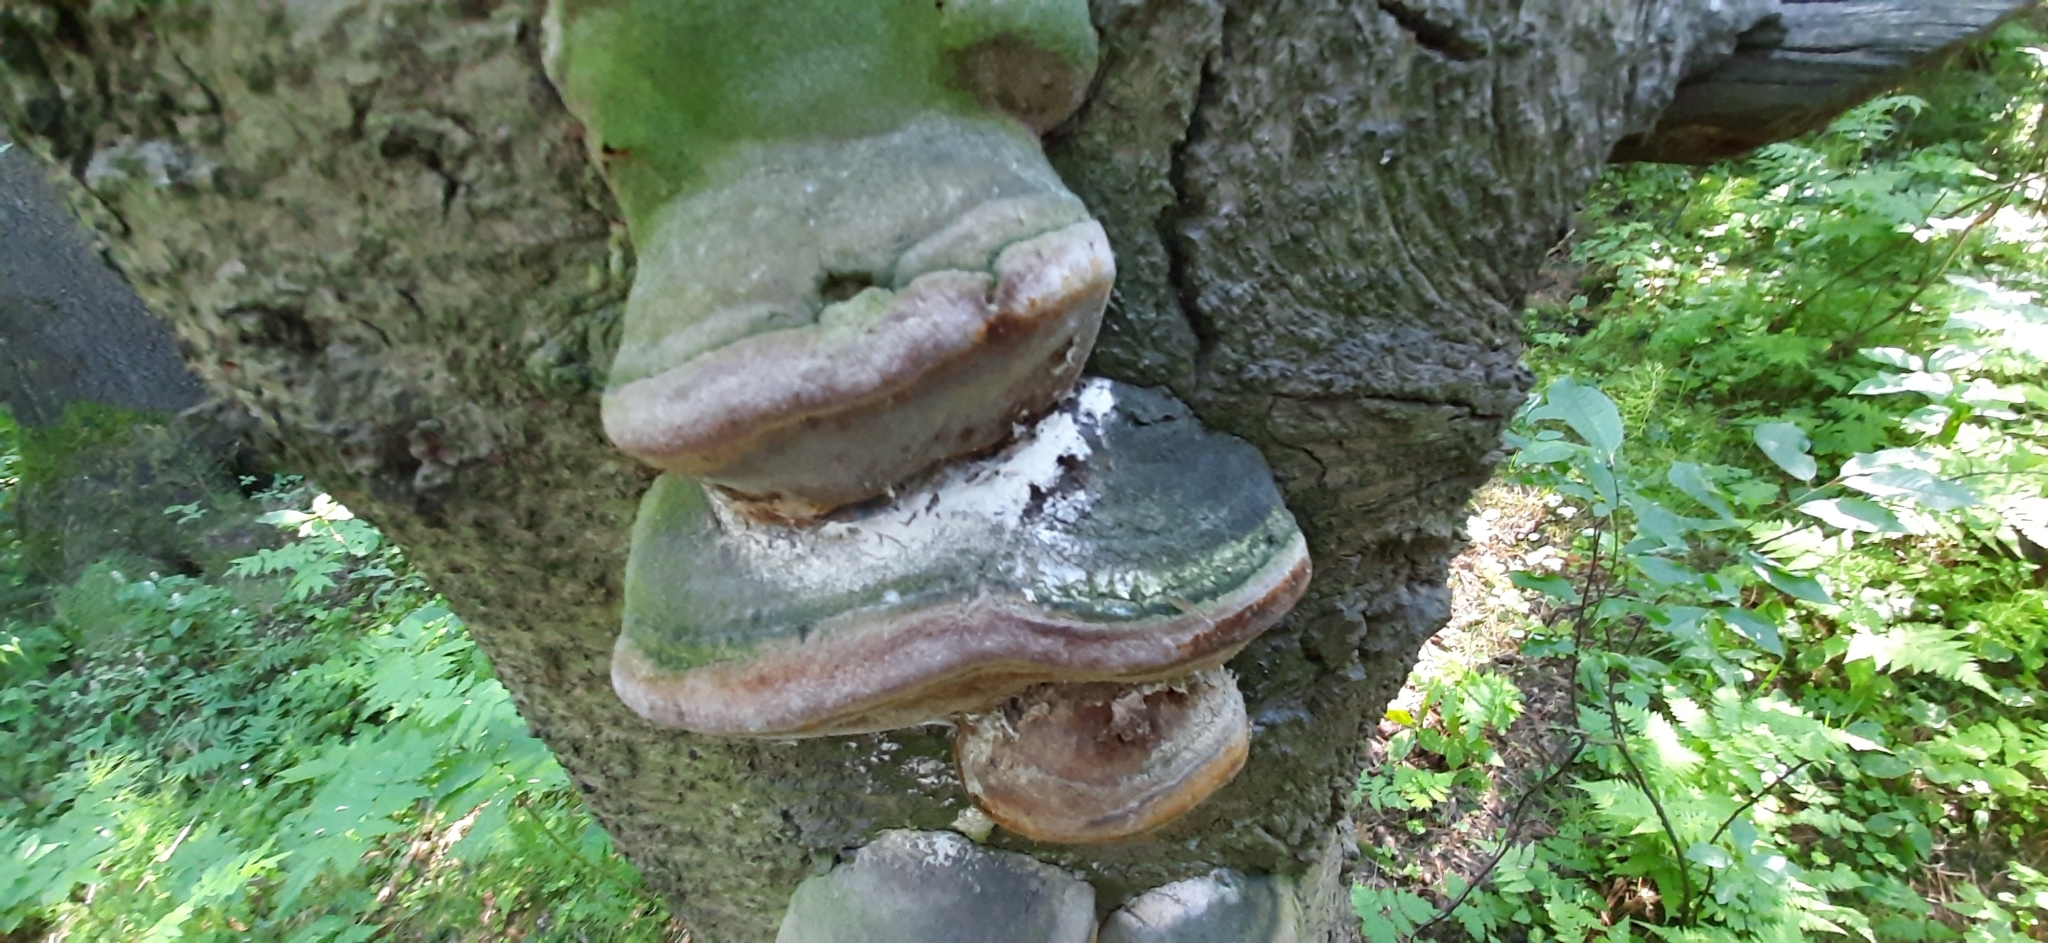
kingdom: Fungi
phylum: Basidiomycota
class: Agaricomycetes
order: Hymenochaetales
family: Hymenochaetaceae
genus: Phellinus
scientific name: Phellinus hartigii
